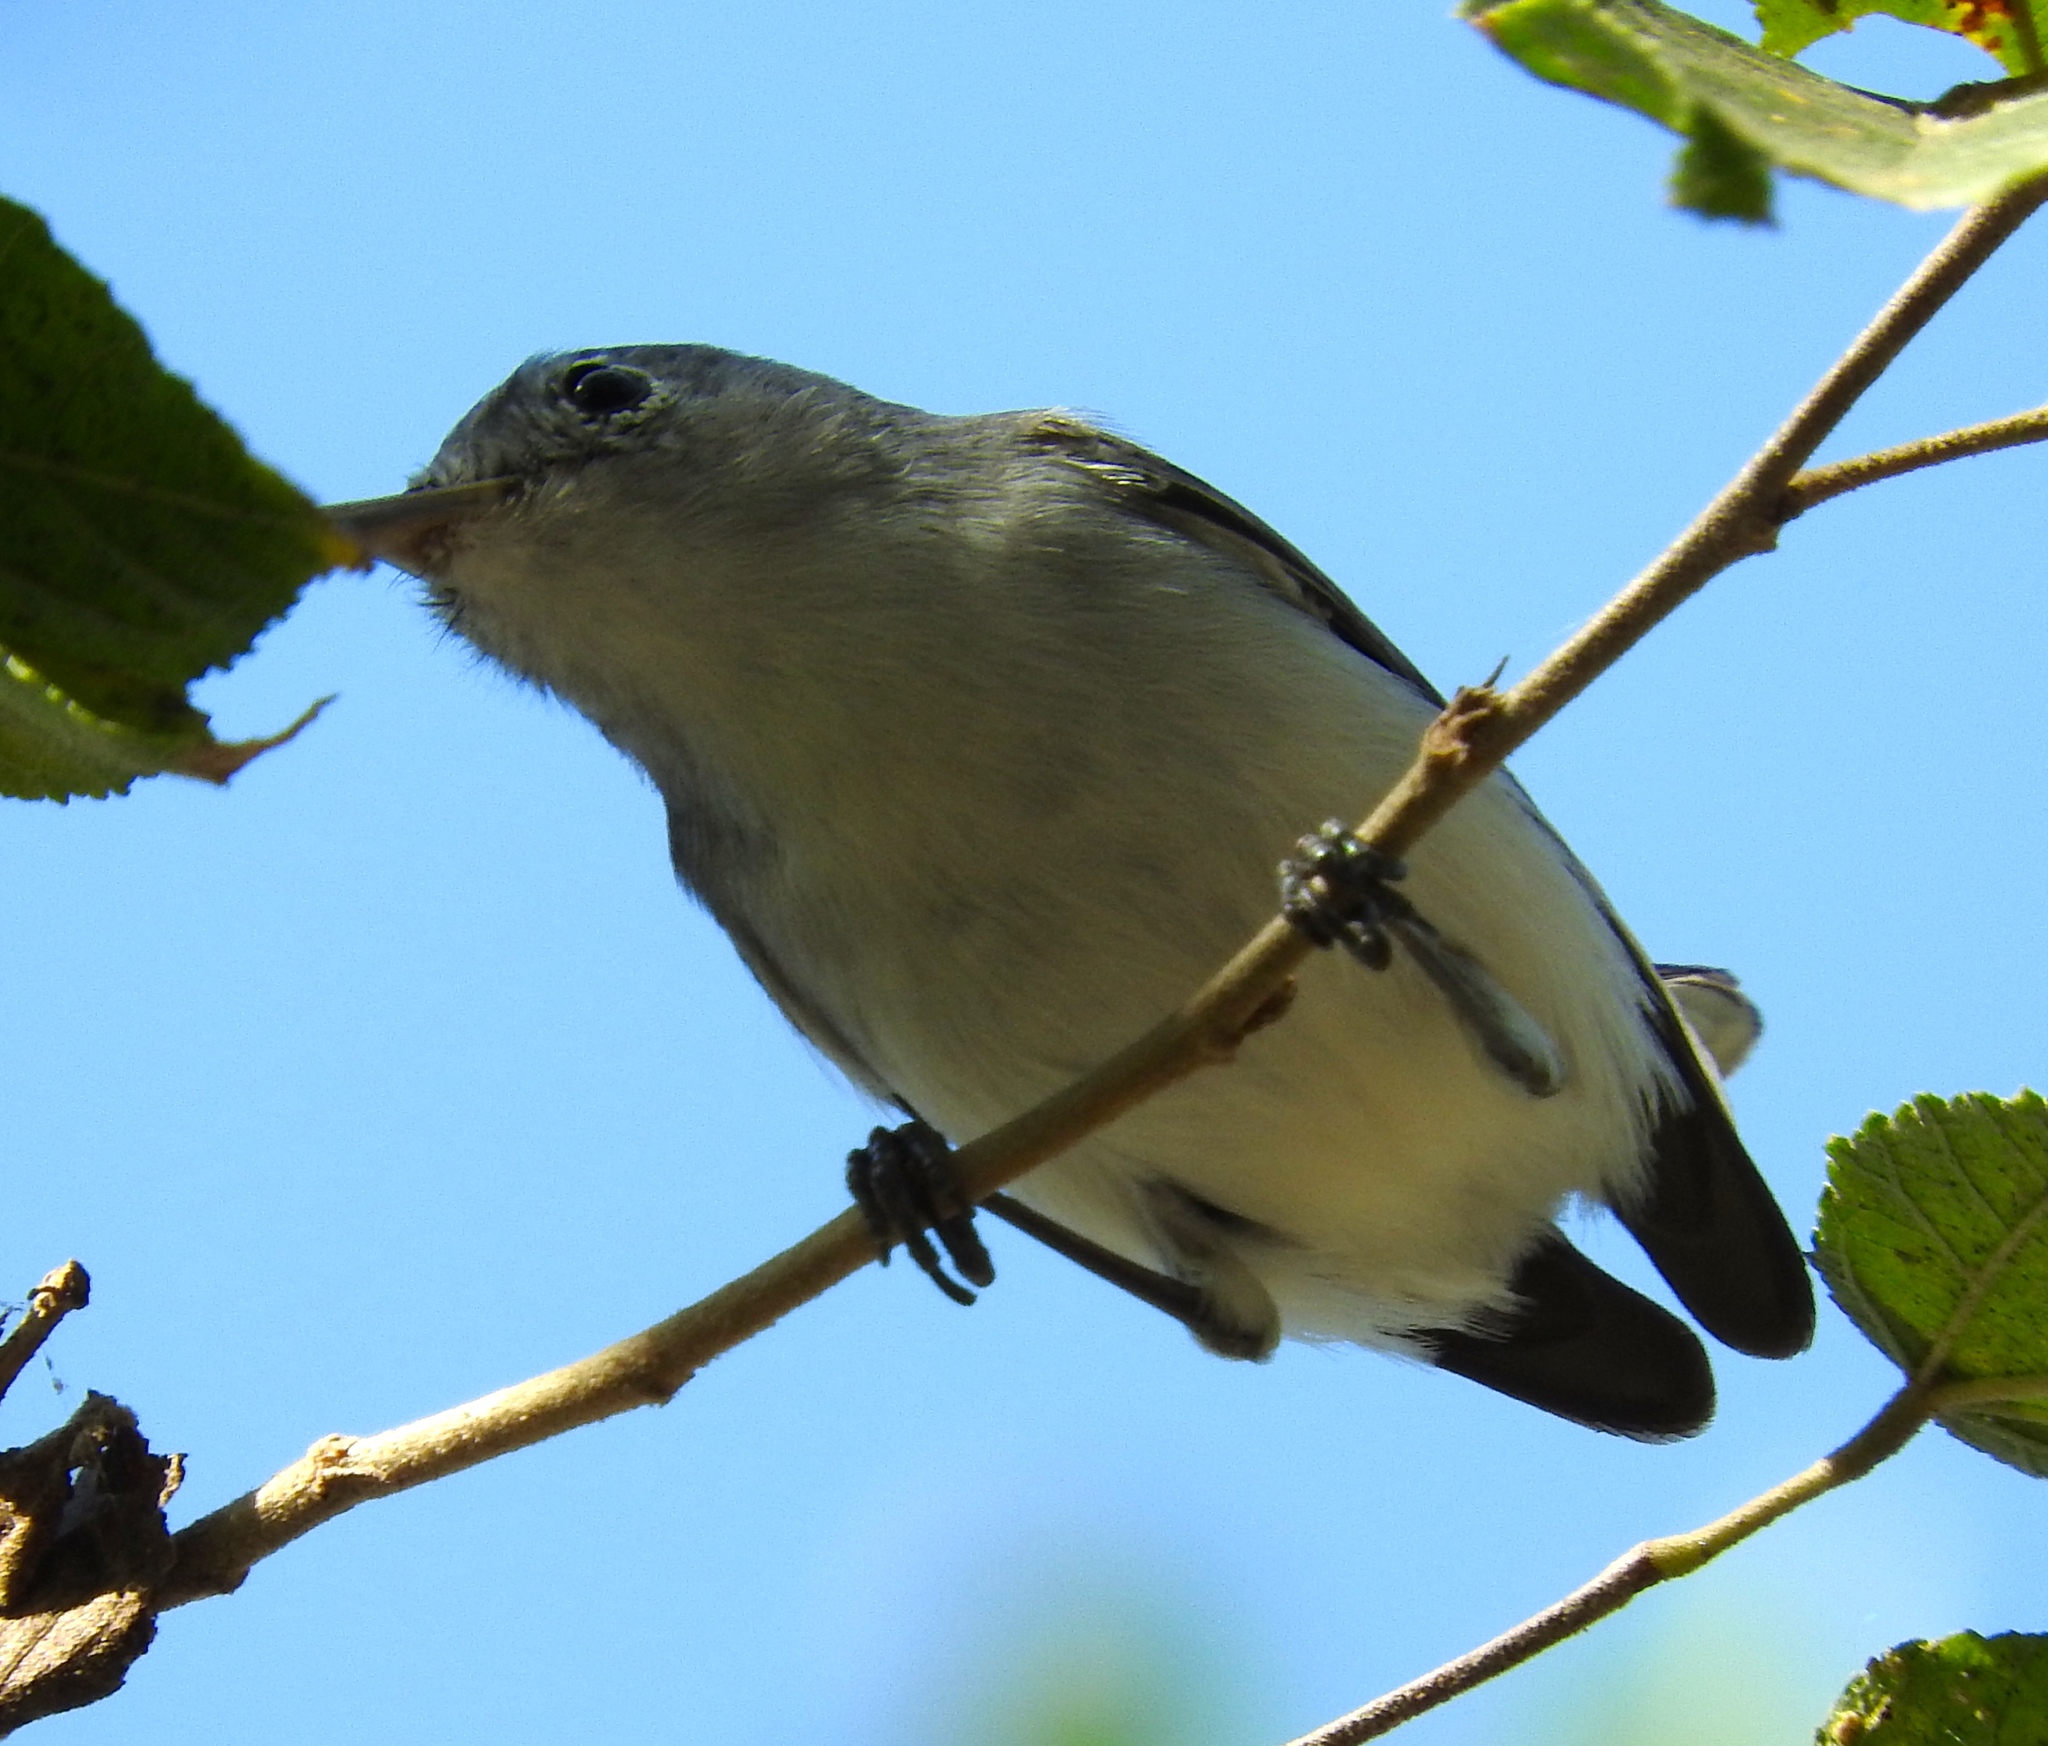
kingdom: Animalia
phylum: Chordata
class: Aves
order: Passeriformes
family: Polioptilidae
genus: Polioptila
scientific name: Polioptila caerulea
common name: Blue-gray gnatcatcher
